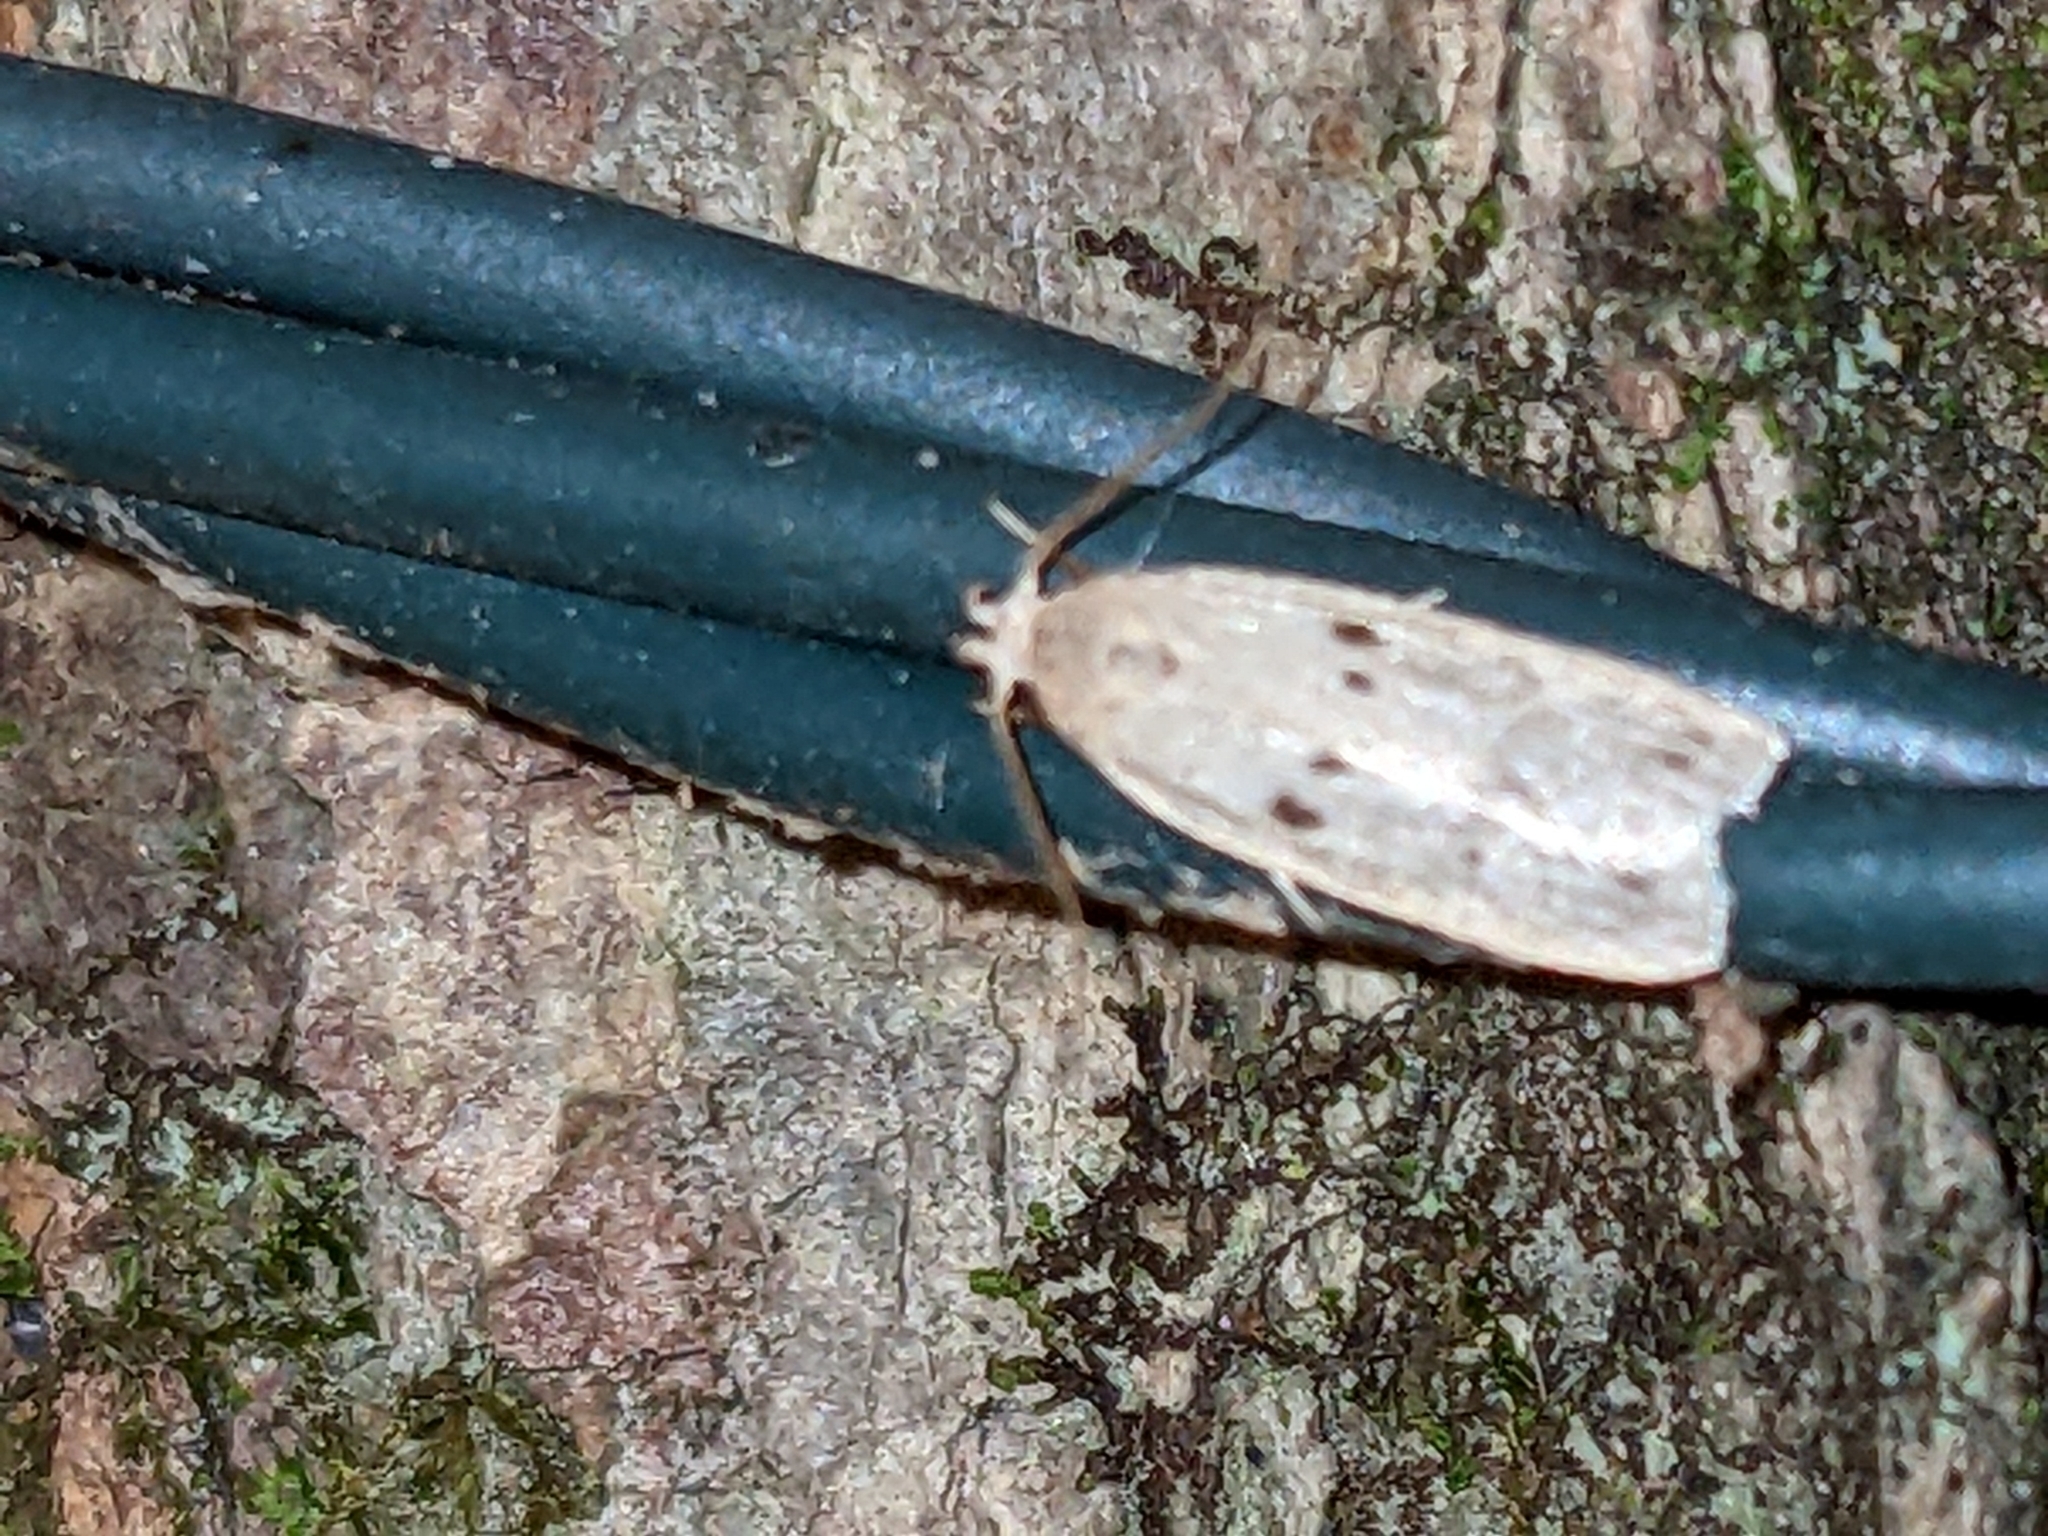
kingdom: Animalia
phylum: Arthropoda
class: Insecta
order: Lepidoptera
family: Peleopodidae
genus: Scythropiodes
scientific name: Scythropiodes issikii
